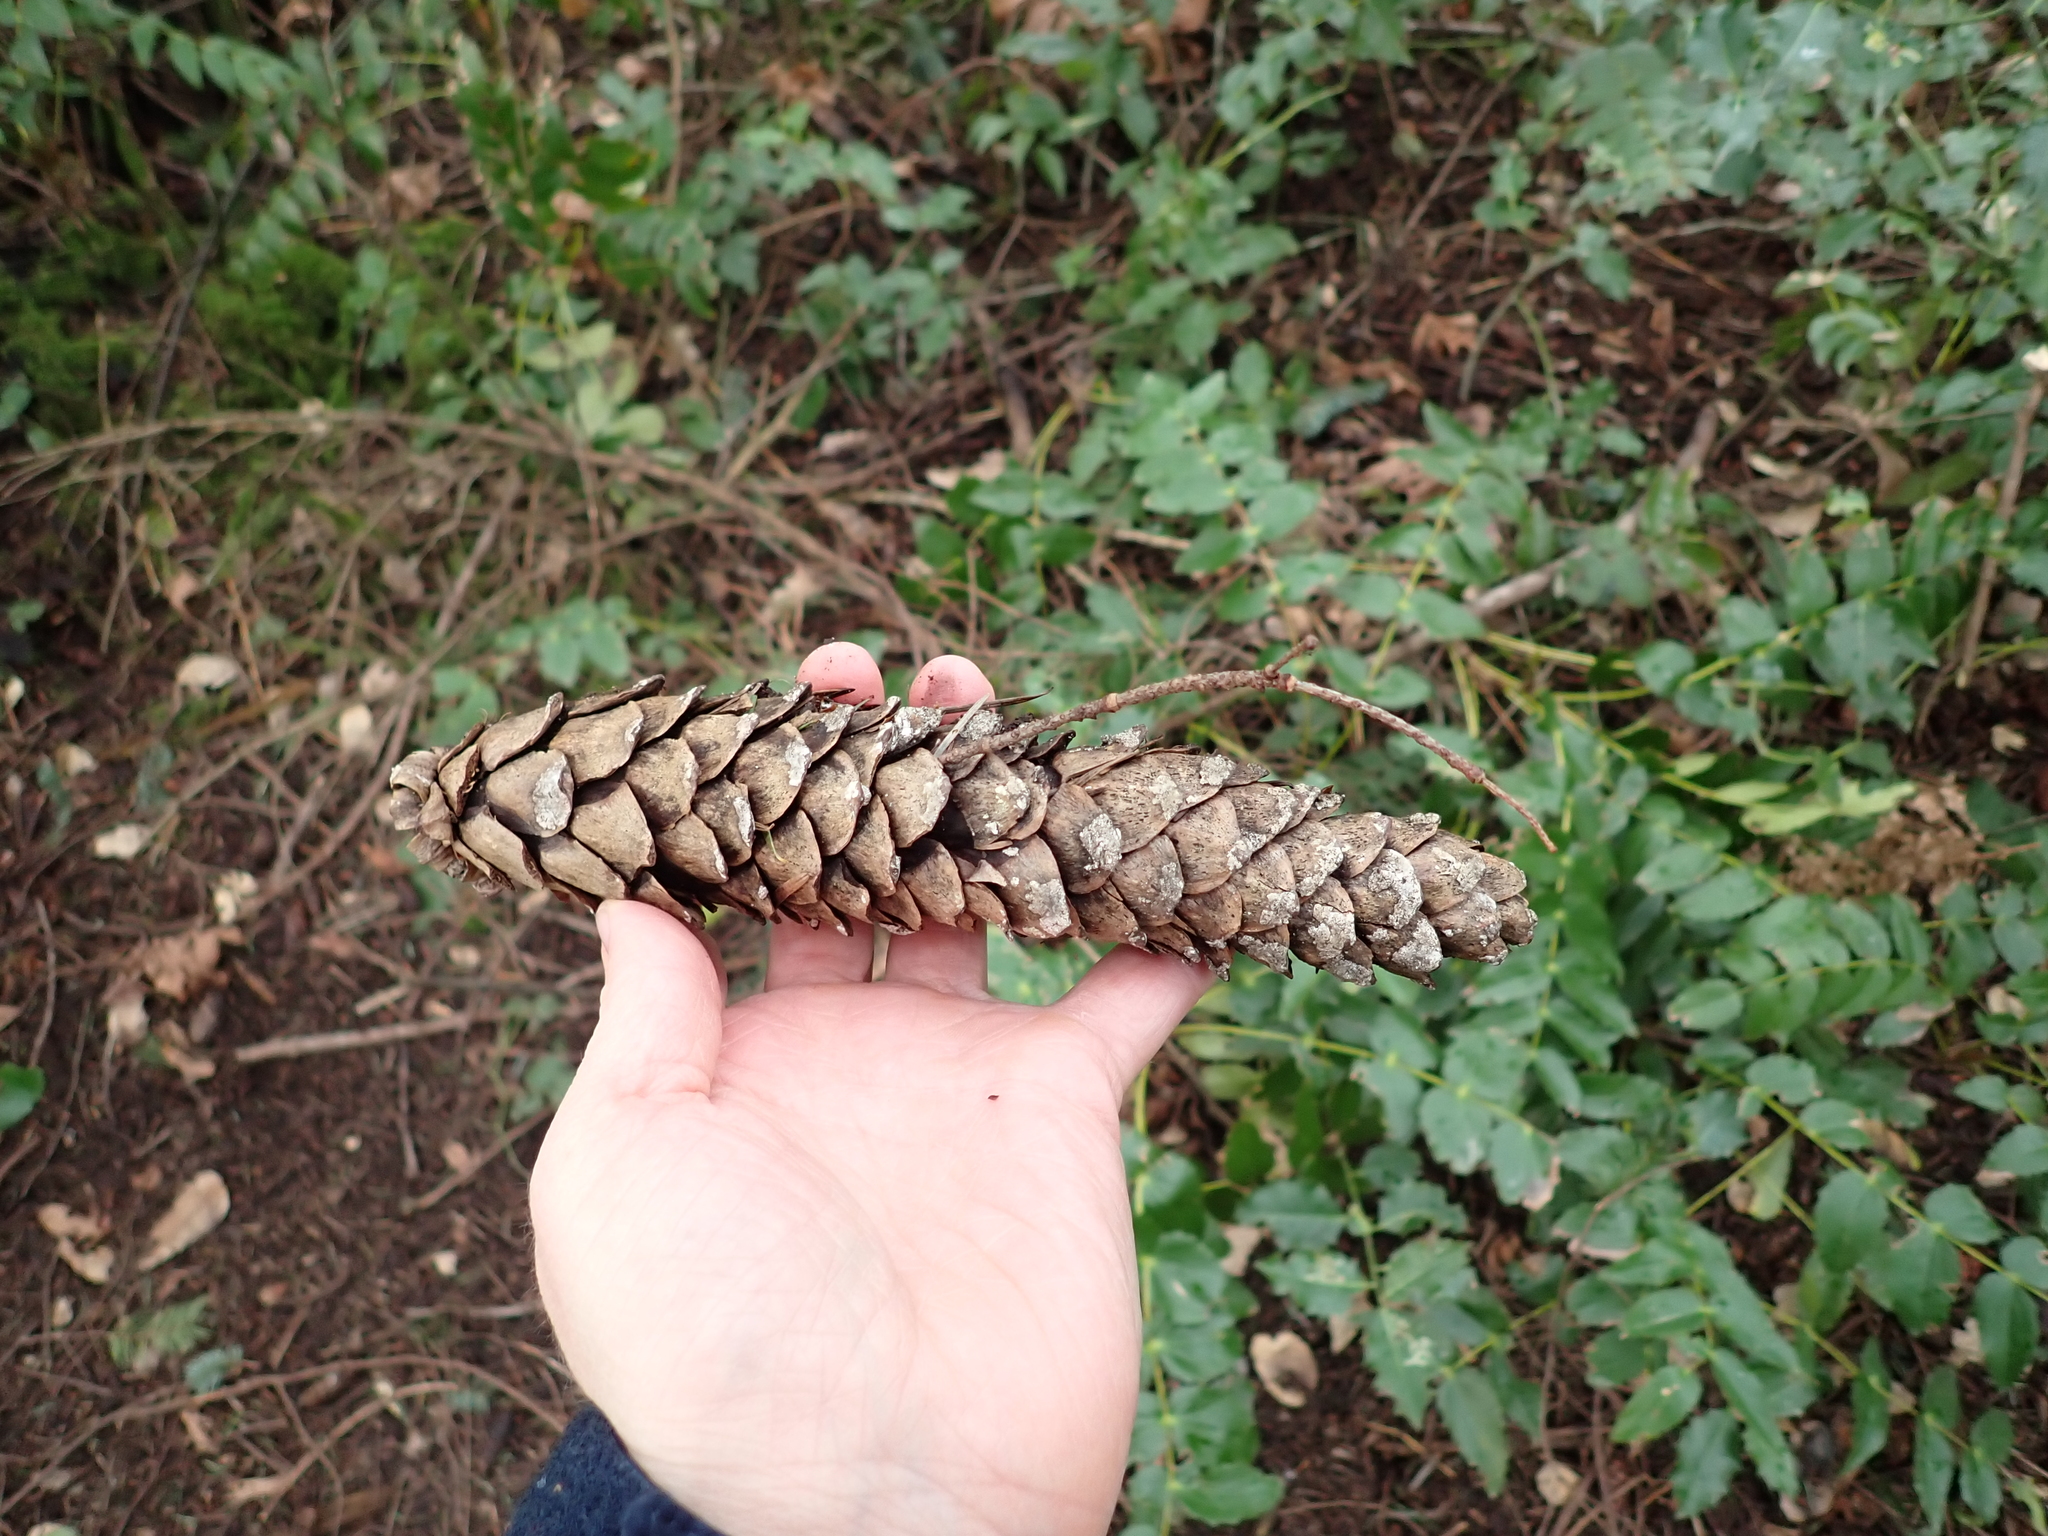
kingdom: Plantae
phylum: Tracheophyta
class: Pinopsida
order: Pinales
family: Pinaceae
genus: Pinus
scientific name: Pinus monticola
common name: Western white pine
